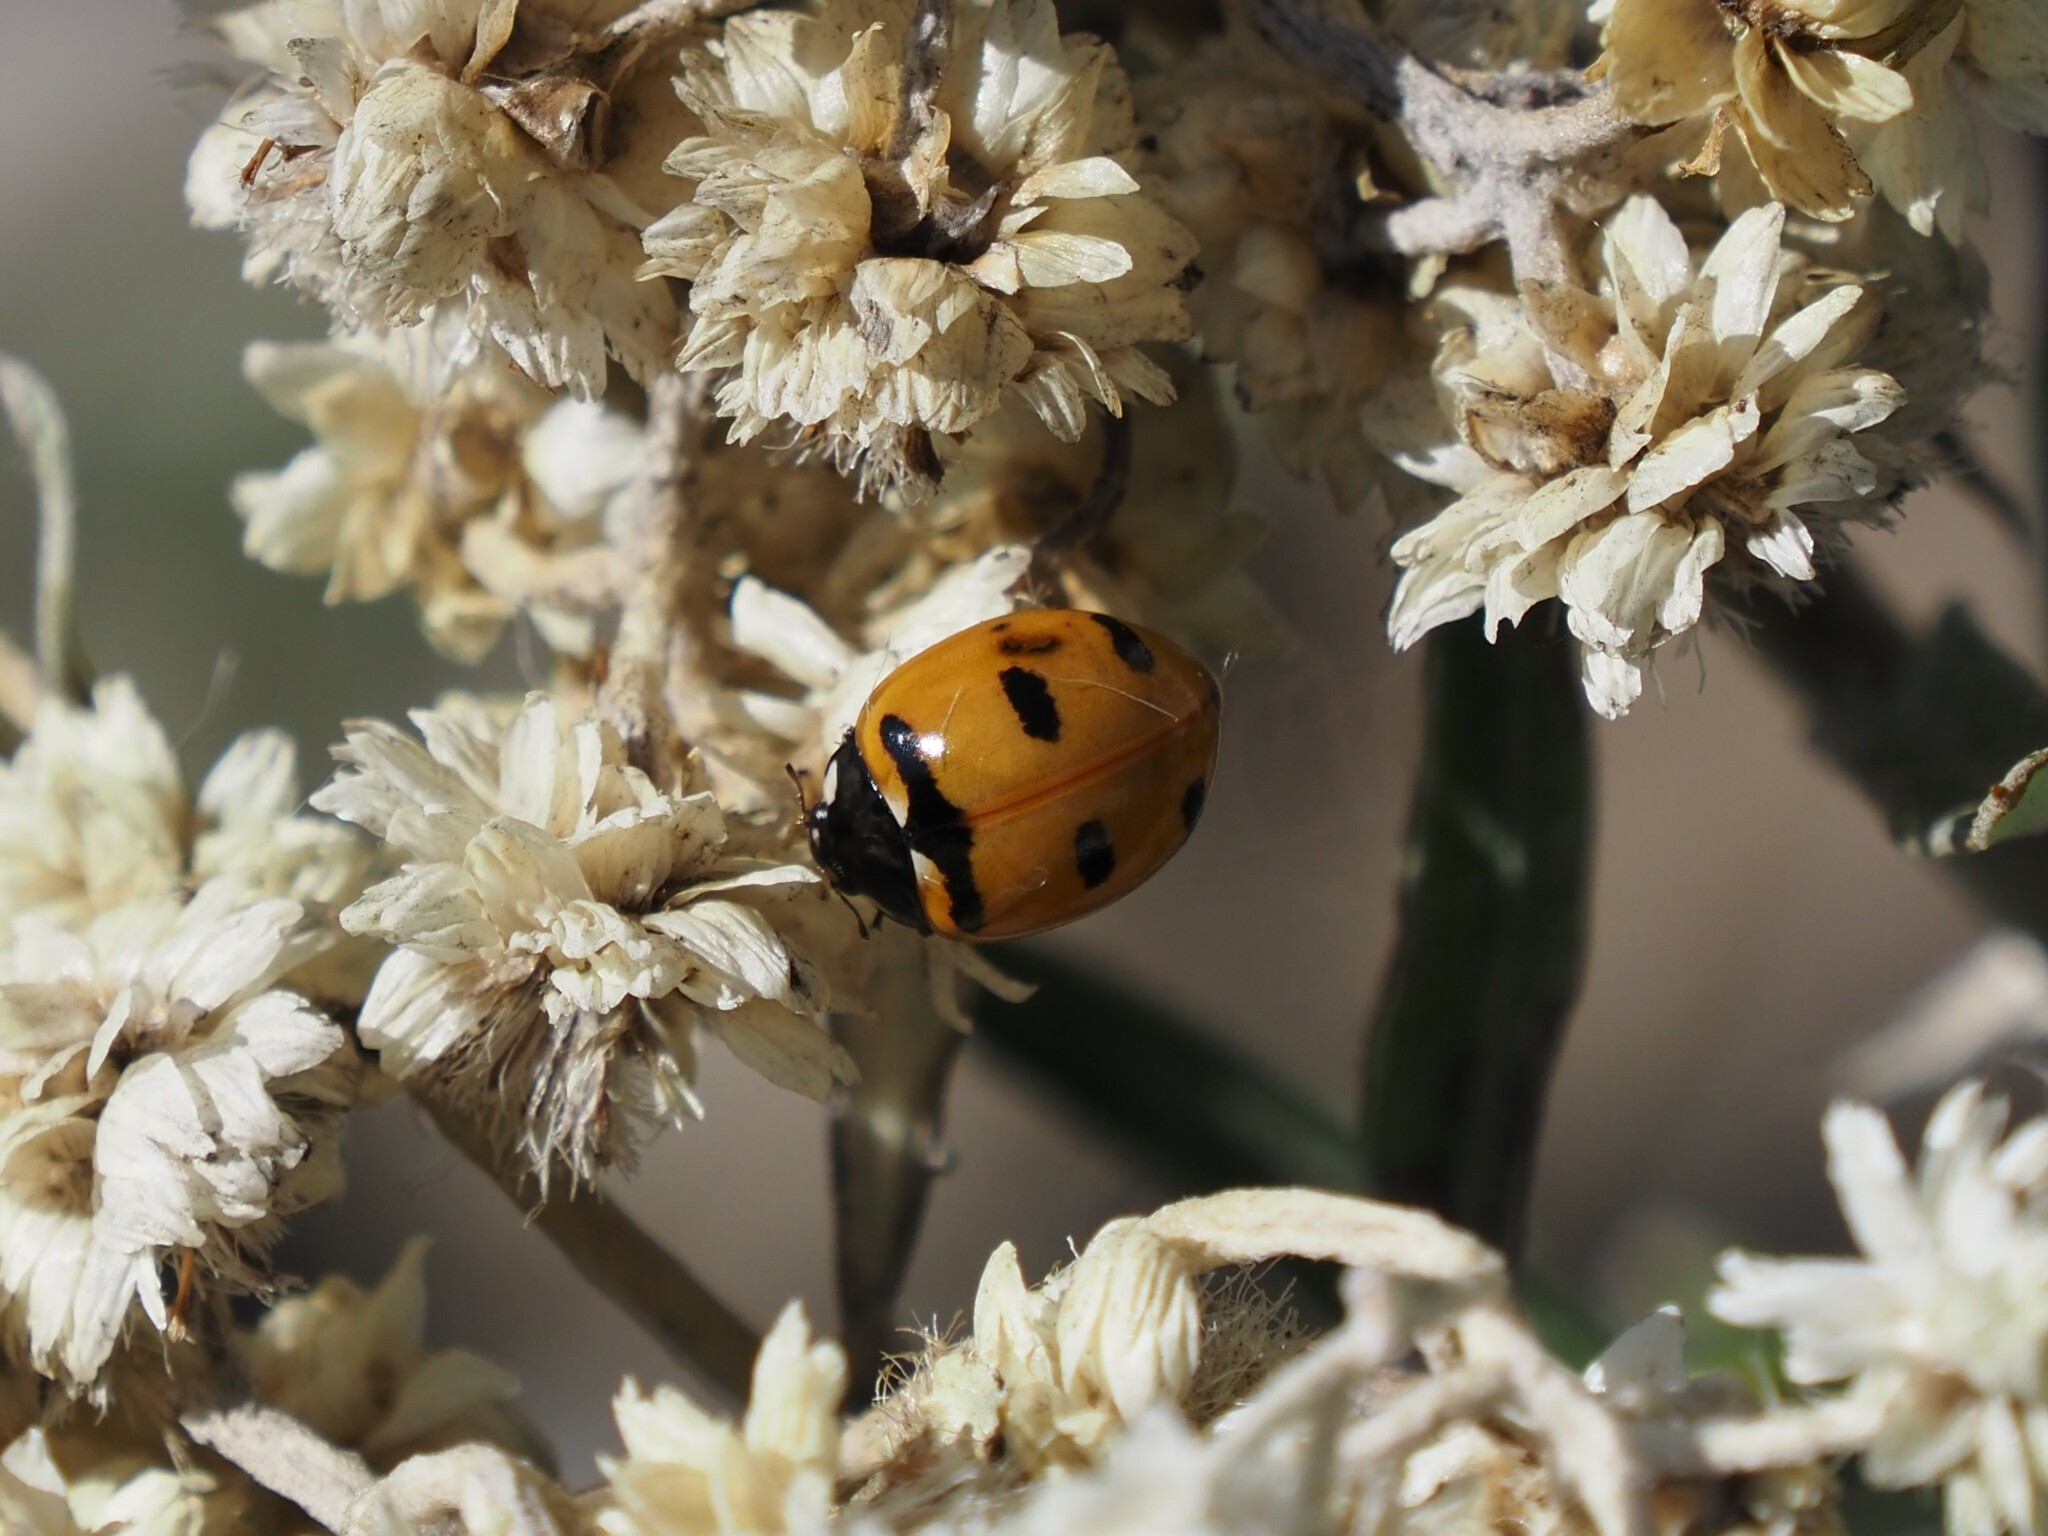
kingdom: Animalia
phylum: Arthropoda
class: Insecta
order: Coleoptera
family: Coccinellidae
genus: Coccinella
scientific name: Coccinella transversoguttata
